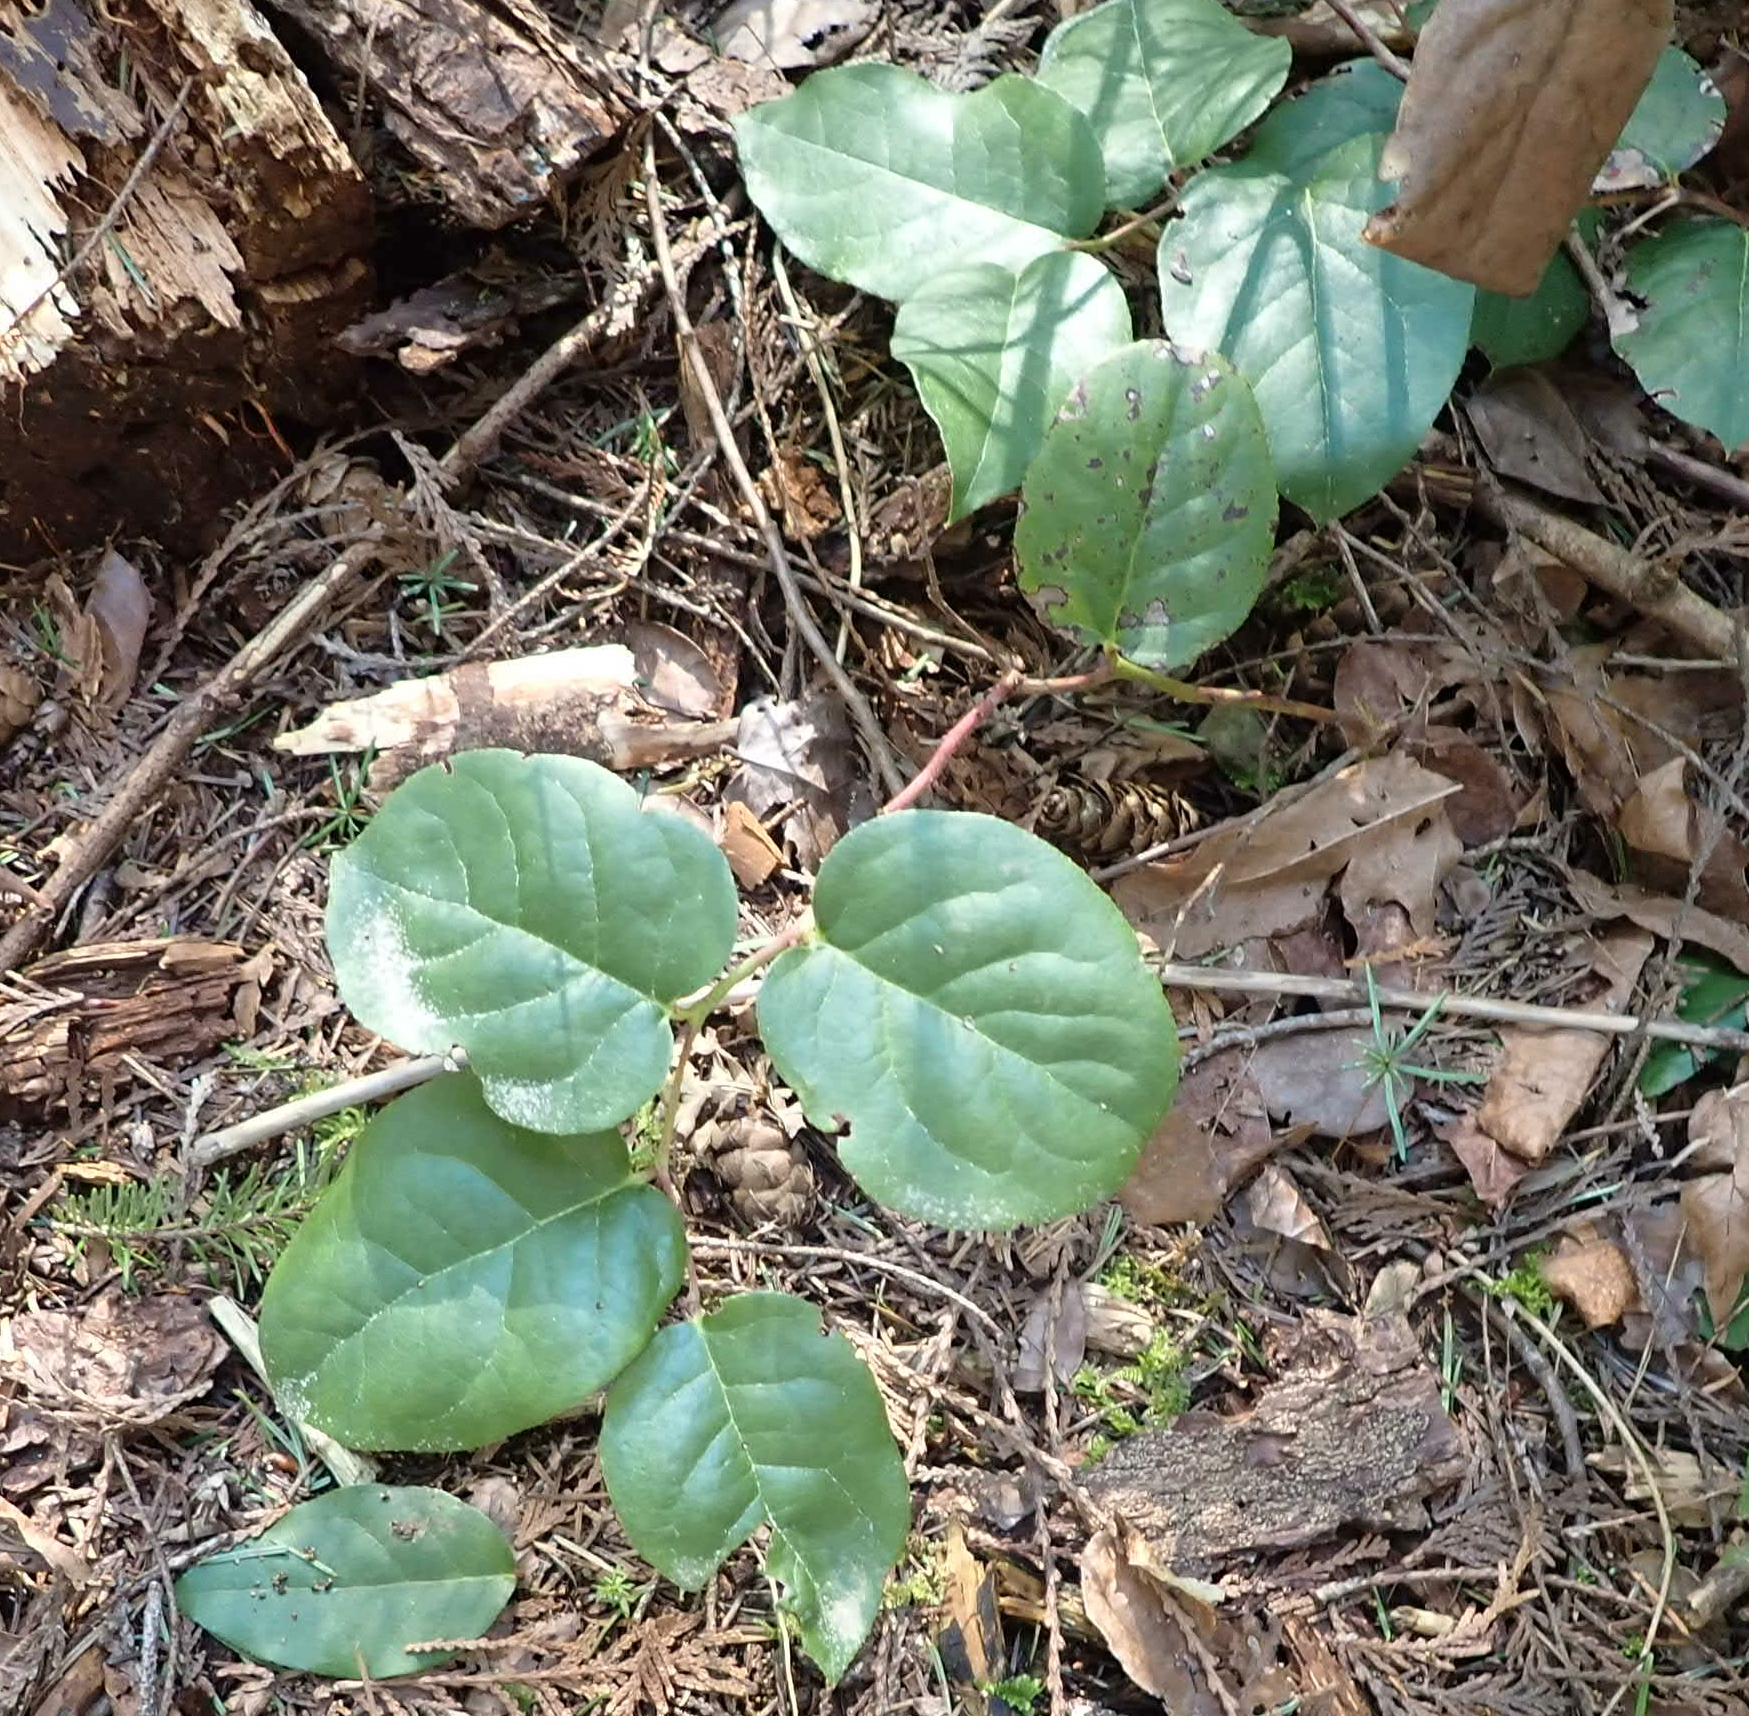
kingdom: Plantae
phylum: Tracheophyta
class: Magnoliopsida
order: Ericales
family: Ericaceae
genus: Gaultheria
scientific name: Gaultheria shallon
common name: Shallon
